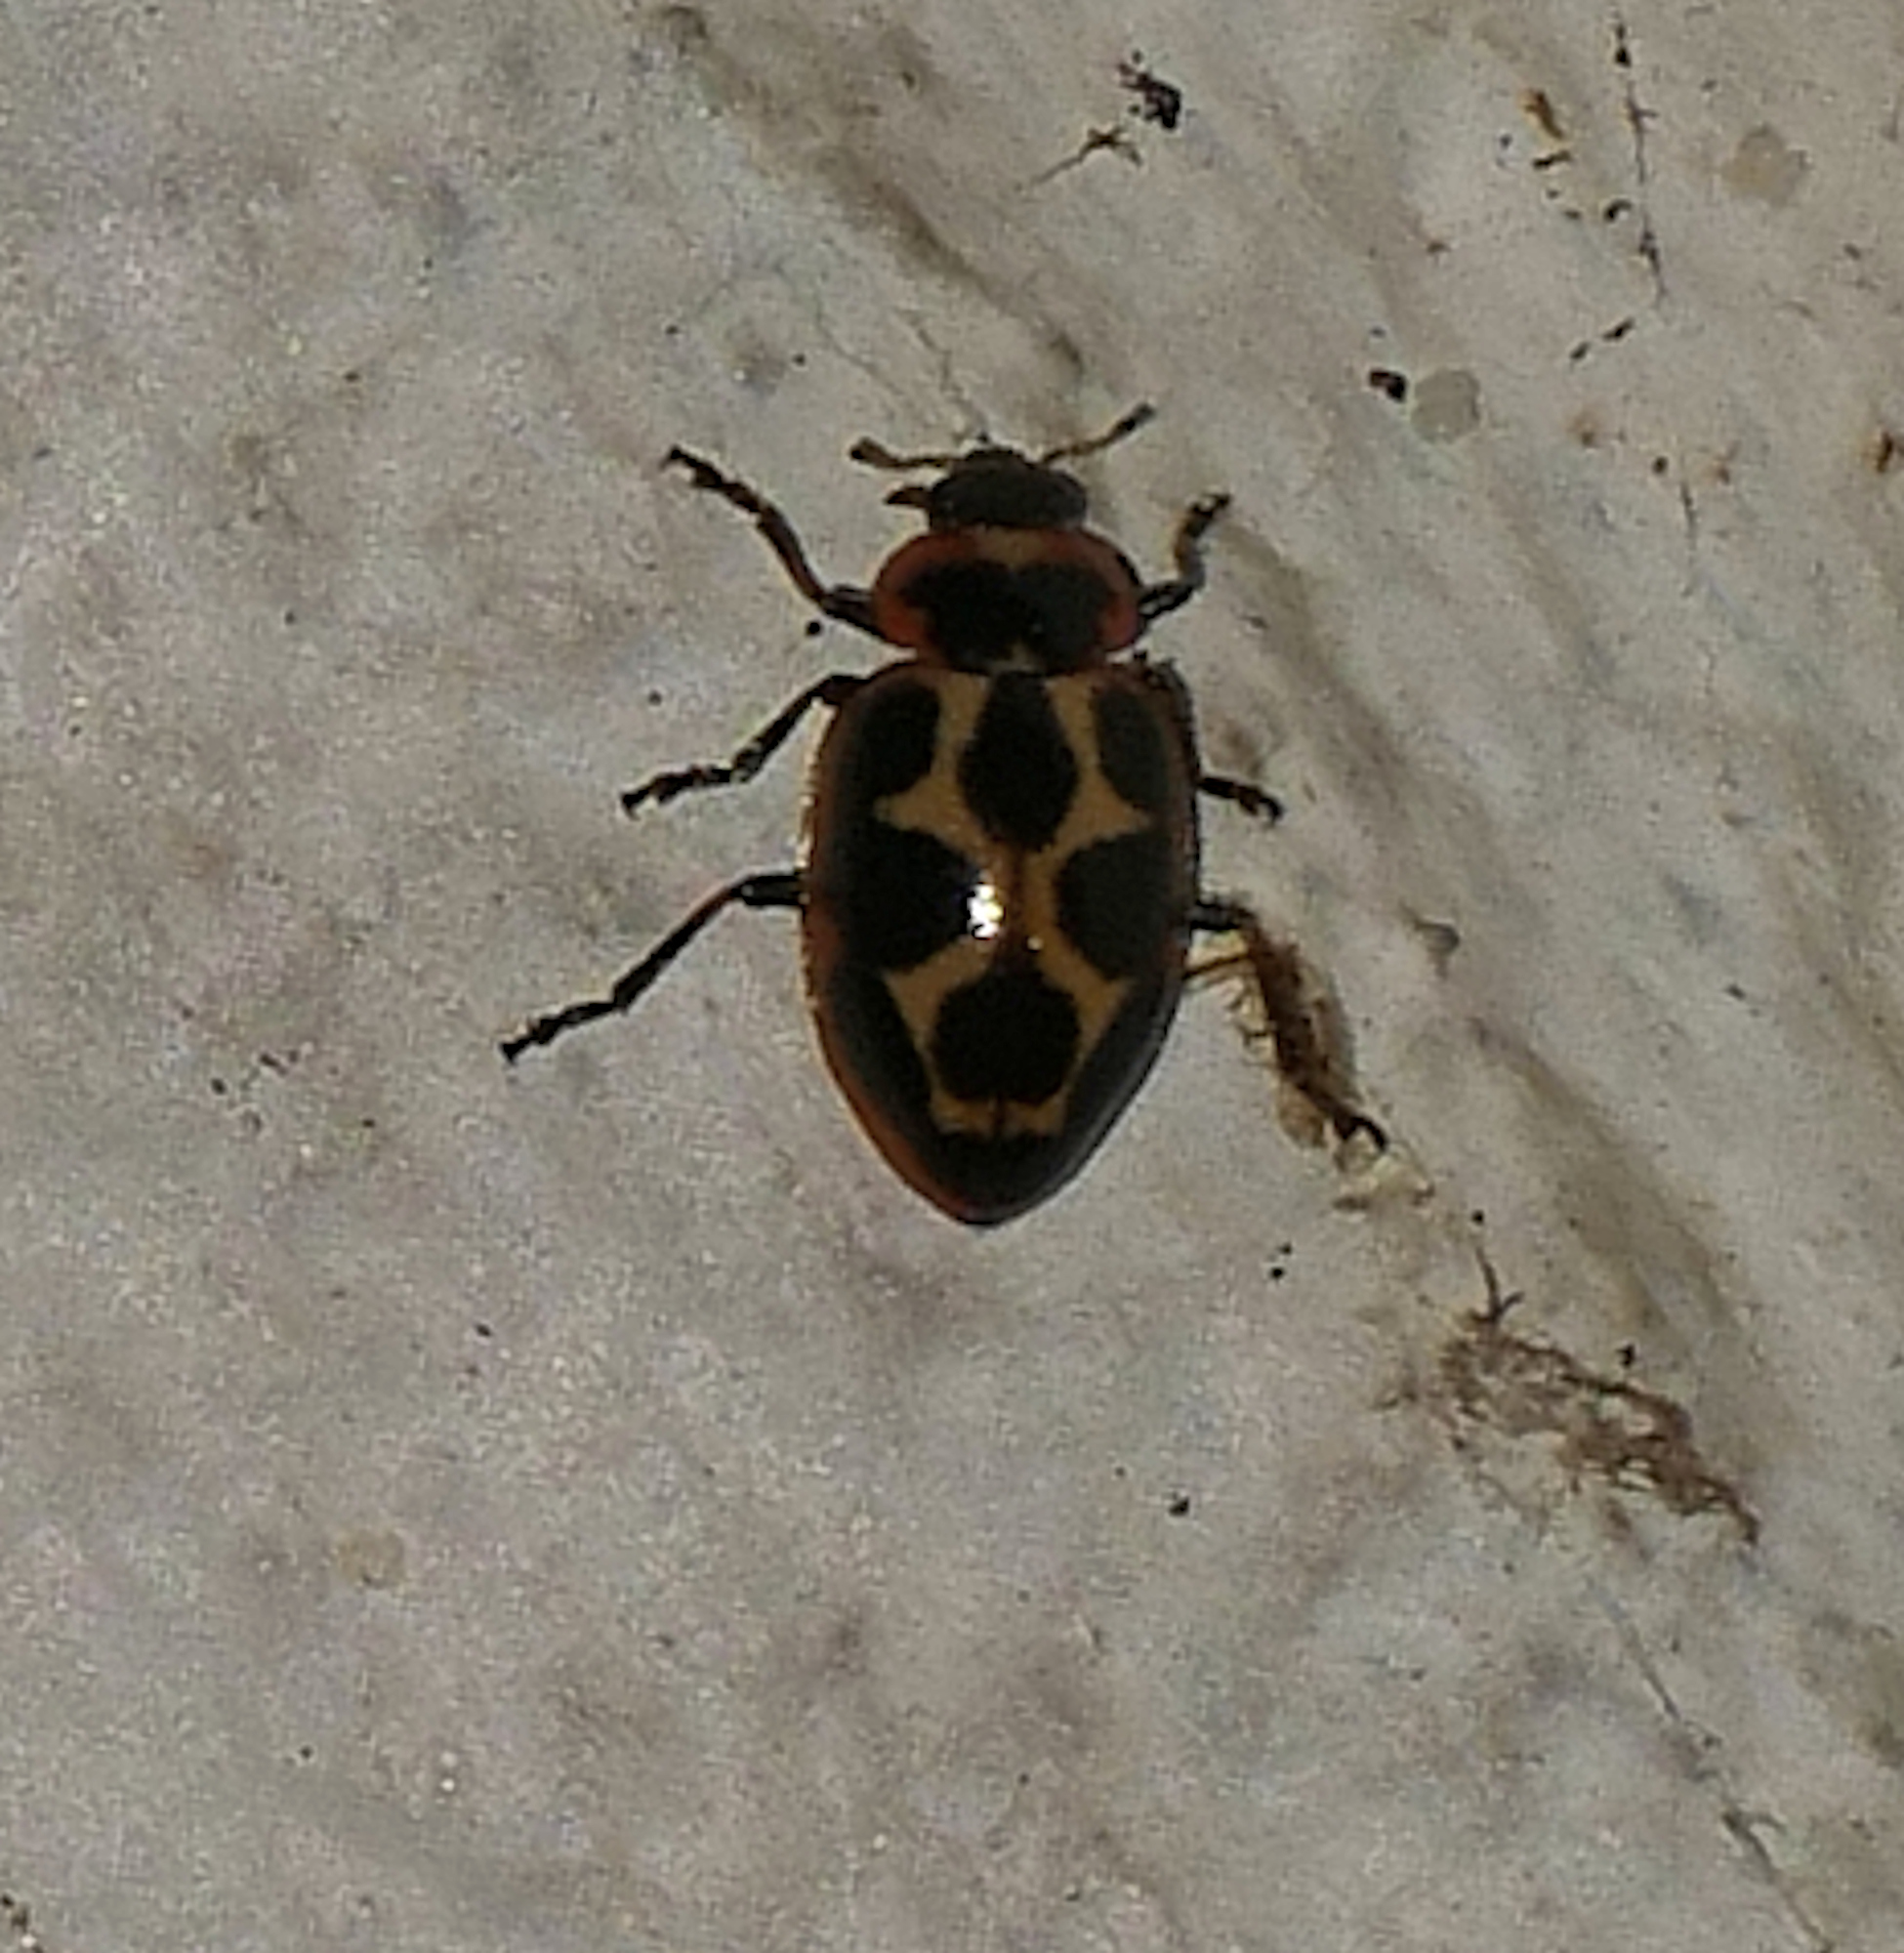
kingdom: Animalia
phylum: Arthropoda
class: Insecta
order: Coleoptera
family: Coccinellidae
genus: Naemia
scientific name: Naemia seriata
